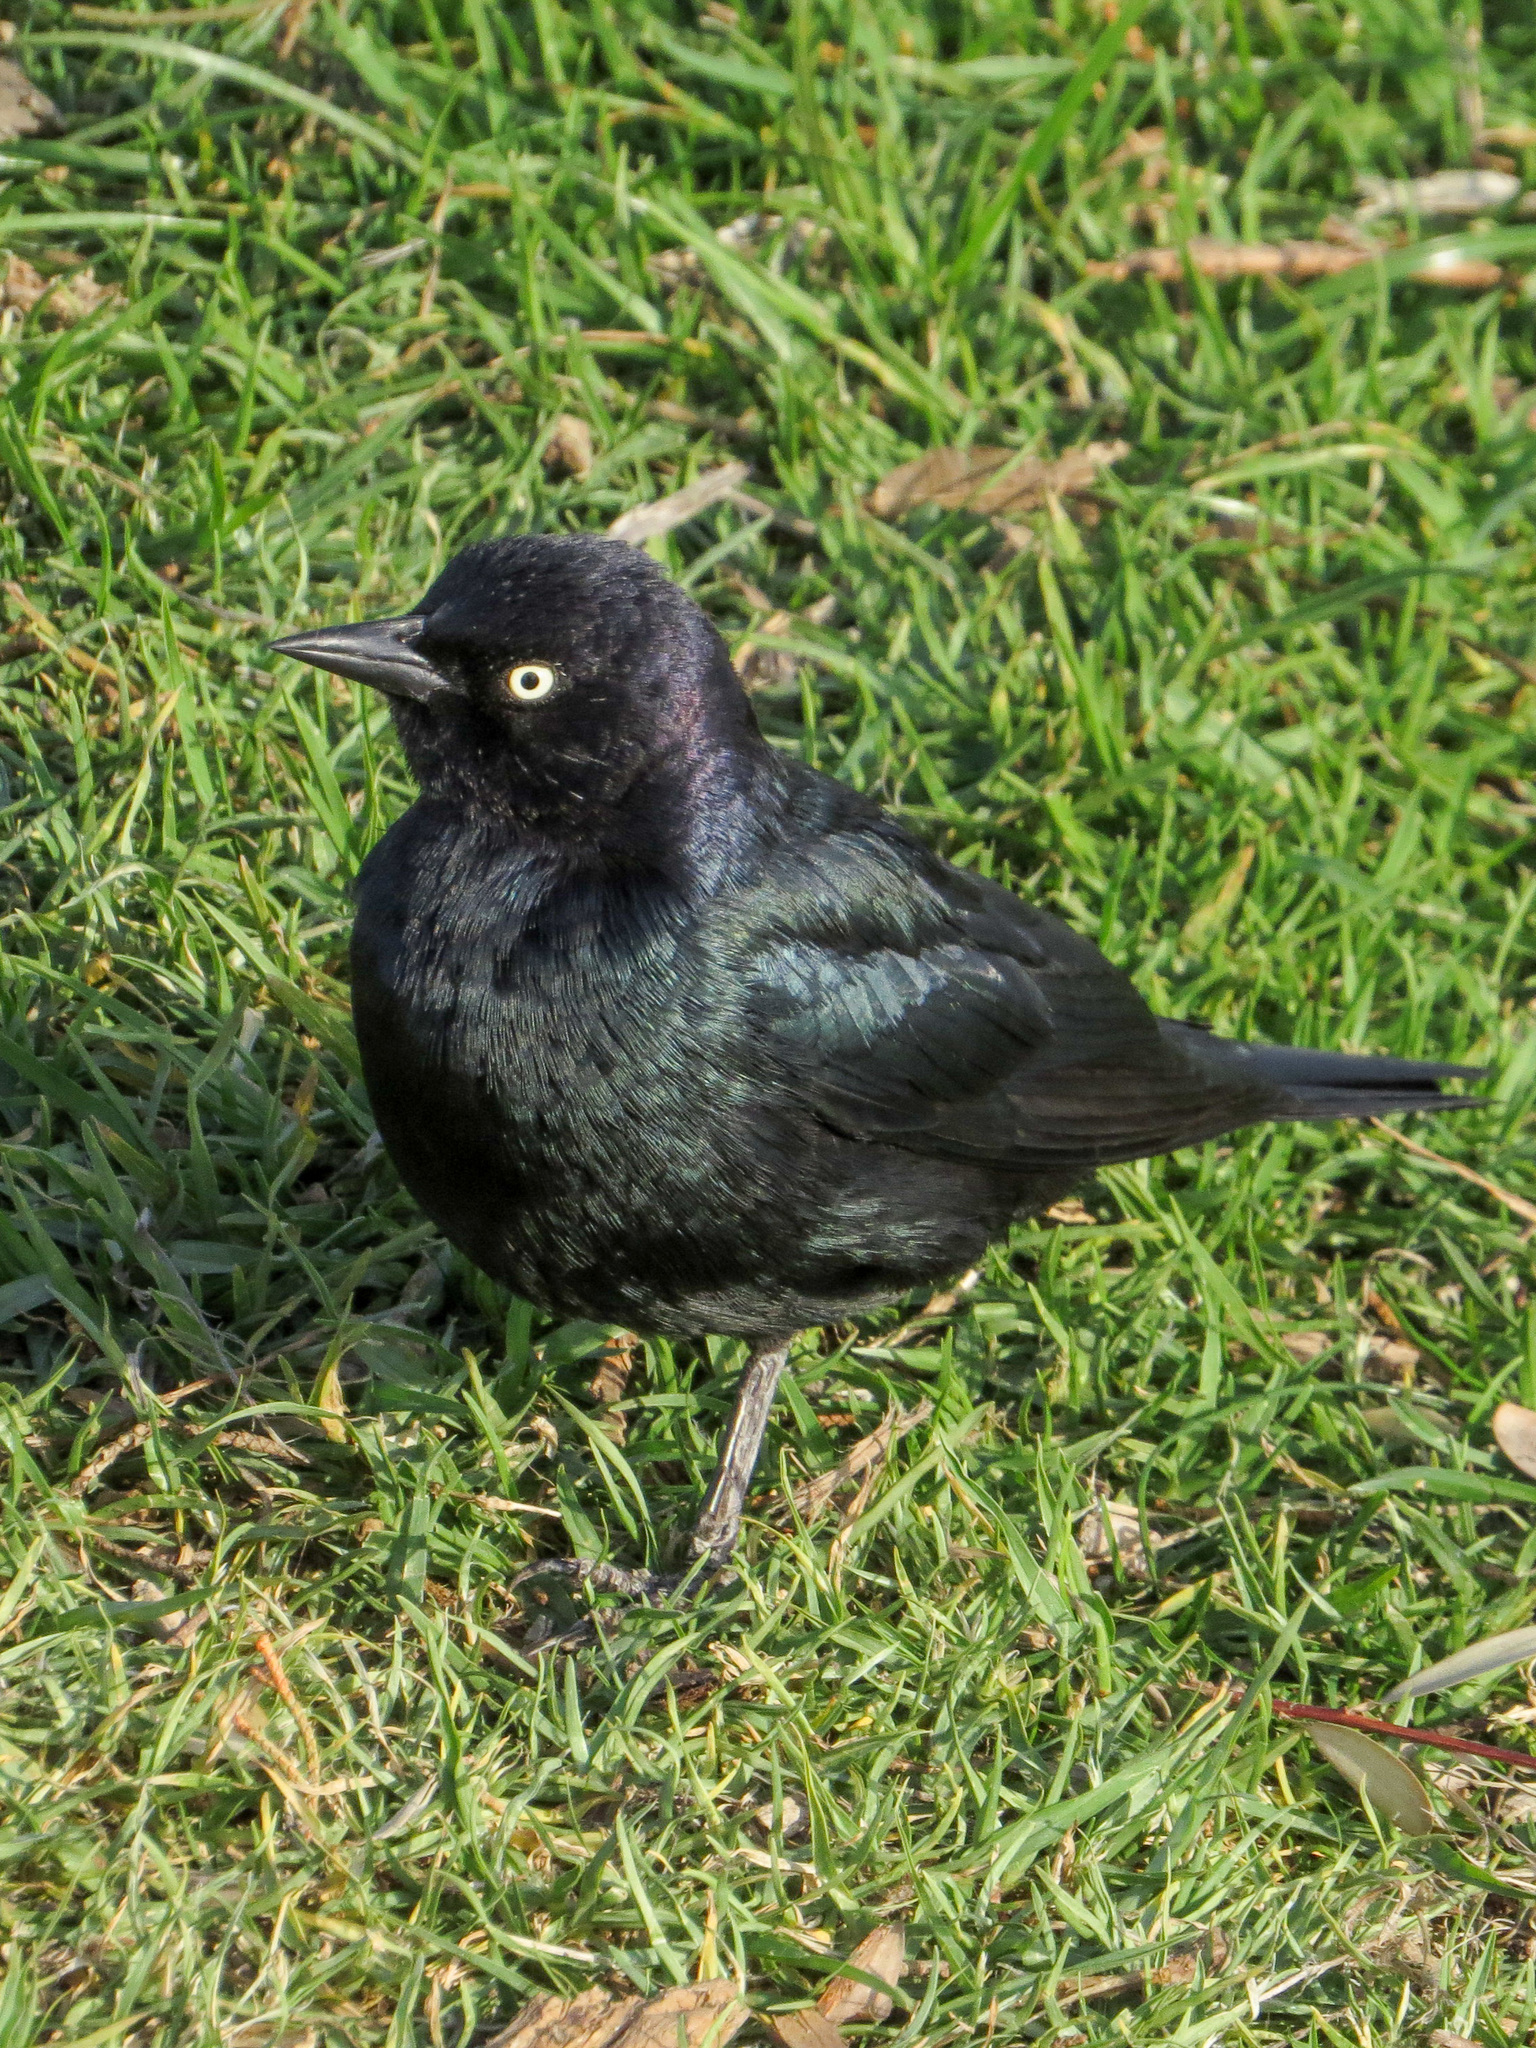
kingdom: Animalia
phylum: Chordata
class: Aves
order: Passeriformes
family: Icteridae
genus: Euphagus
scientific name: Euphagus cyanocephalus
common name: Brewer's blackbird
